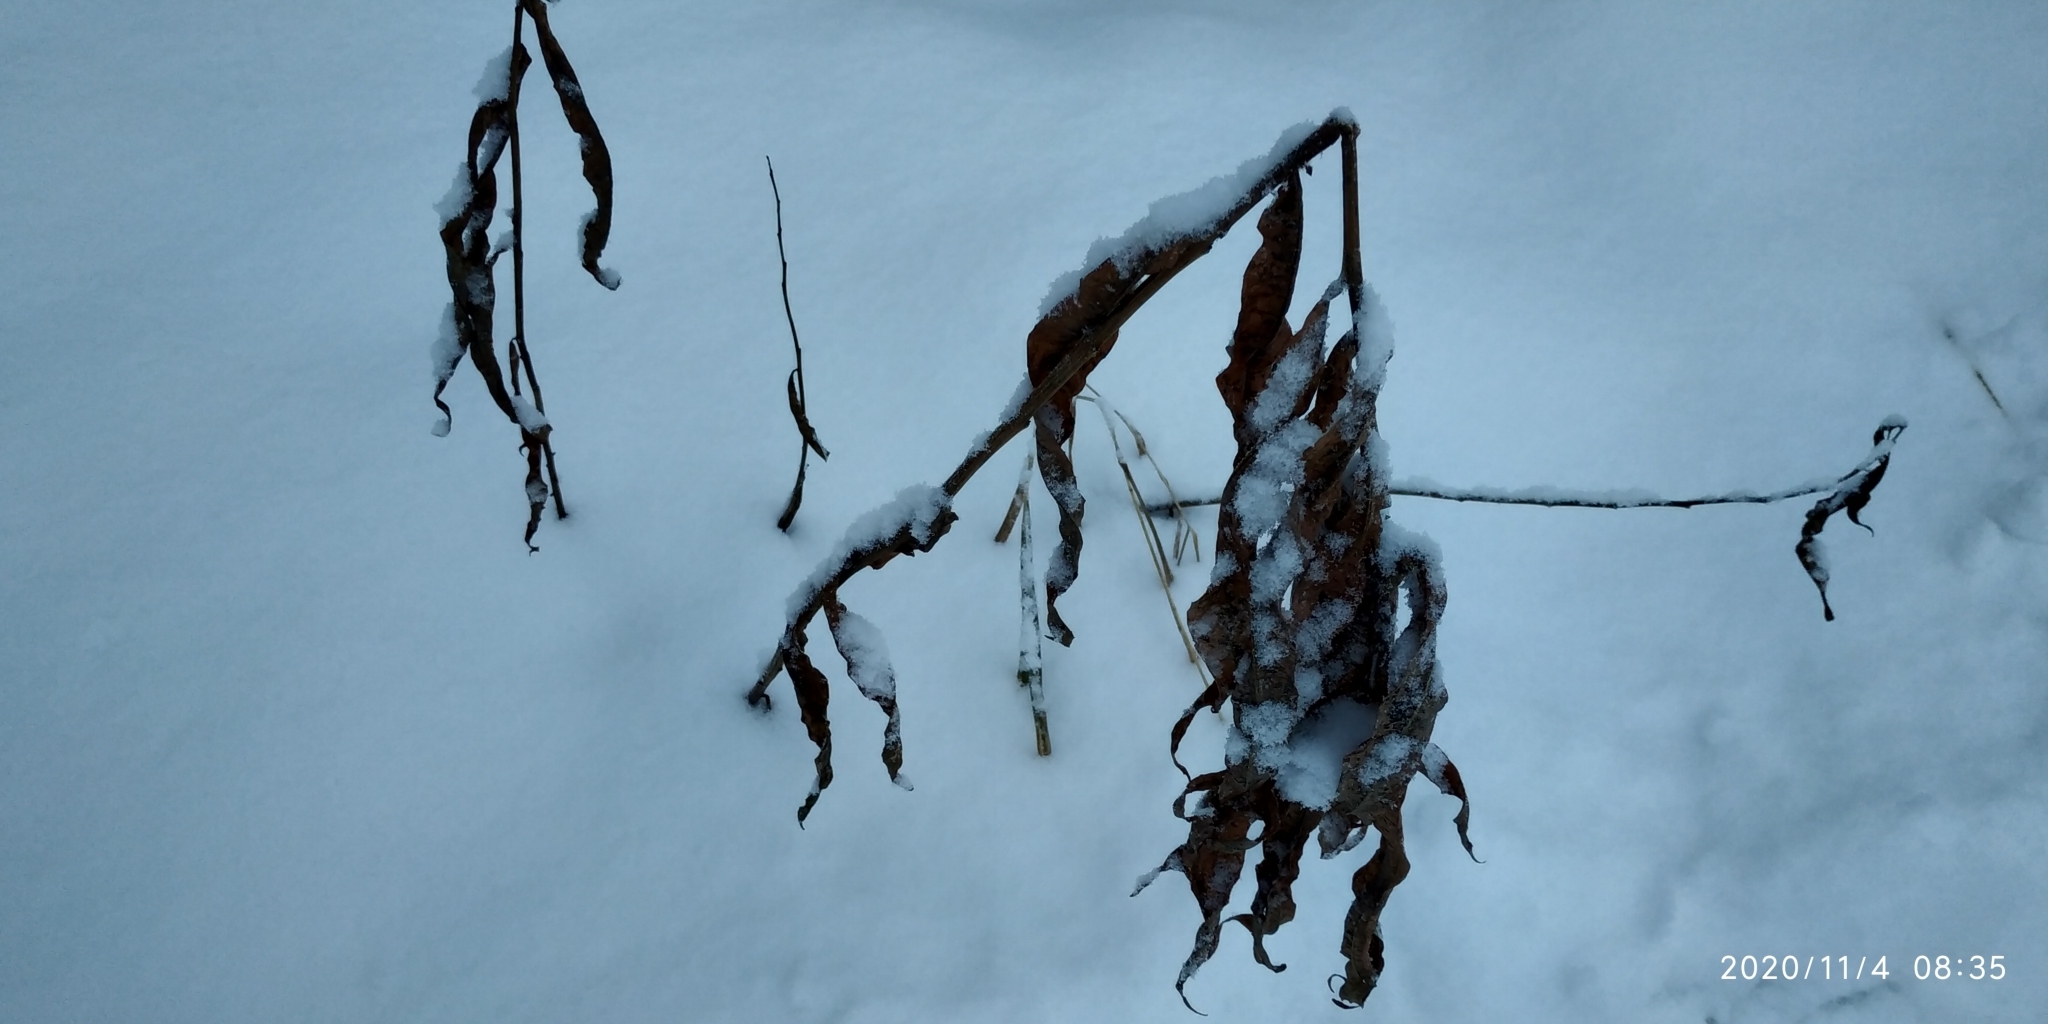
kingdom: Plantae
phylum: Tracheophyta
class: Magnoliopsida
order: Myrtales
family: Onagraceae
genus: Chamaenerion
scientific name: Chamaenerion angustifolium
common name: Fireweed
